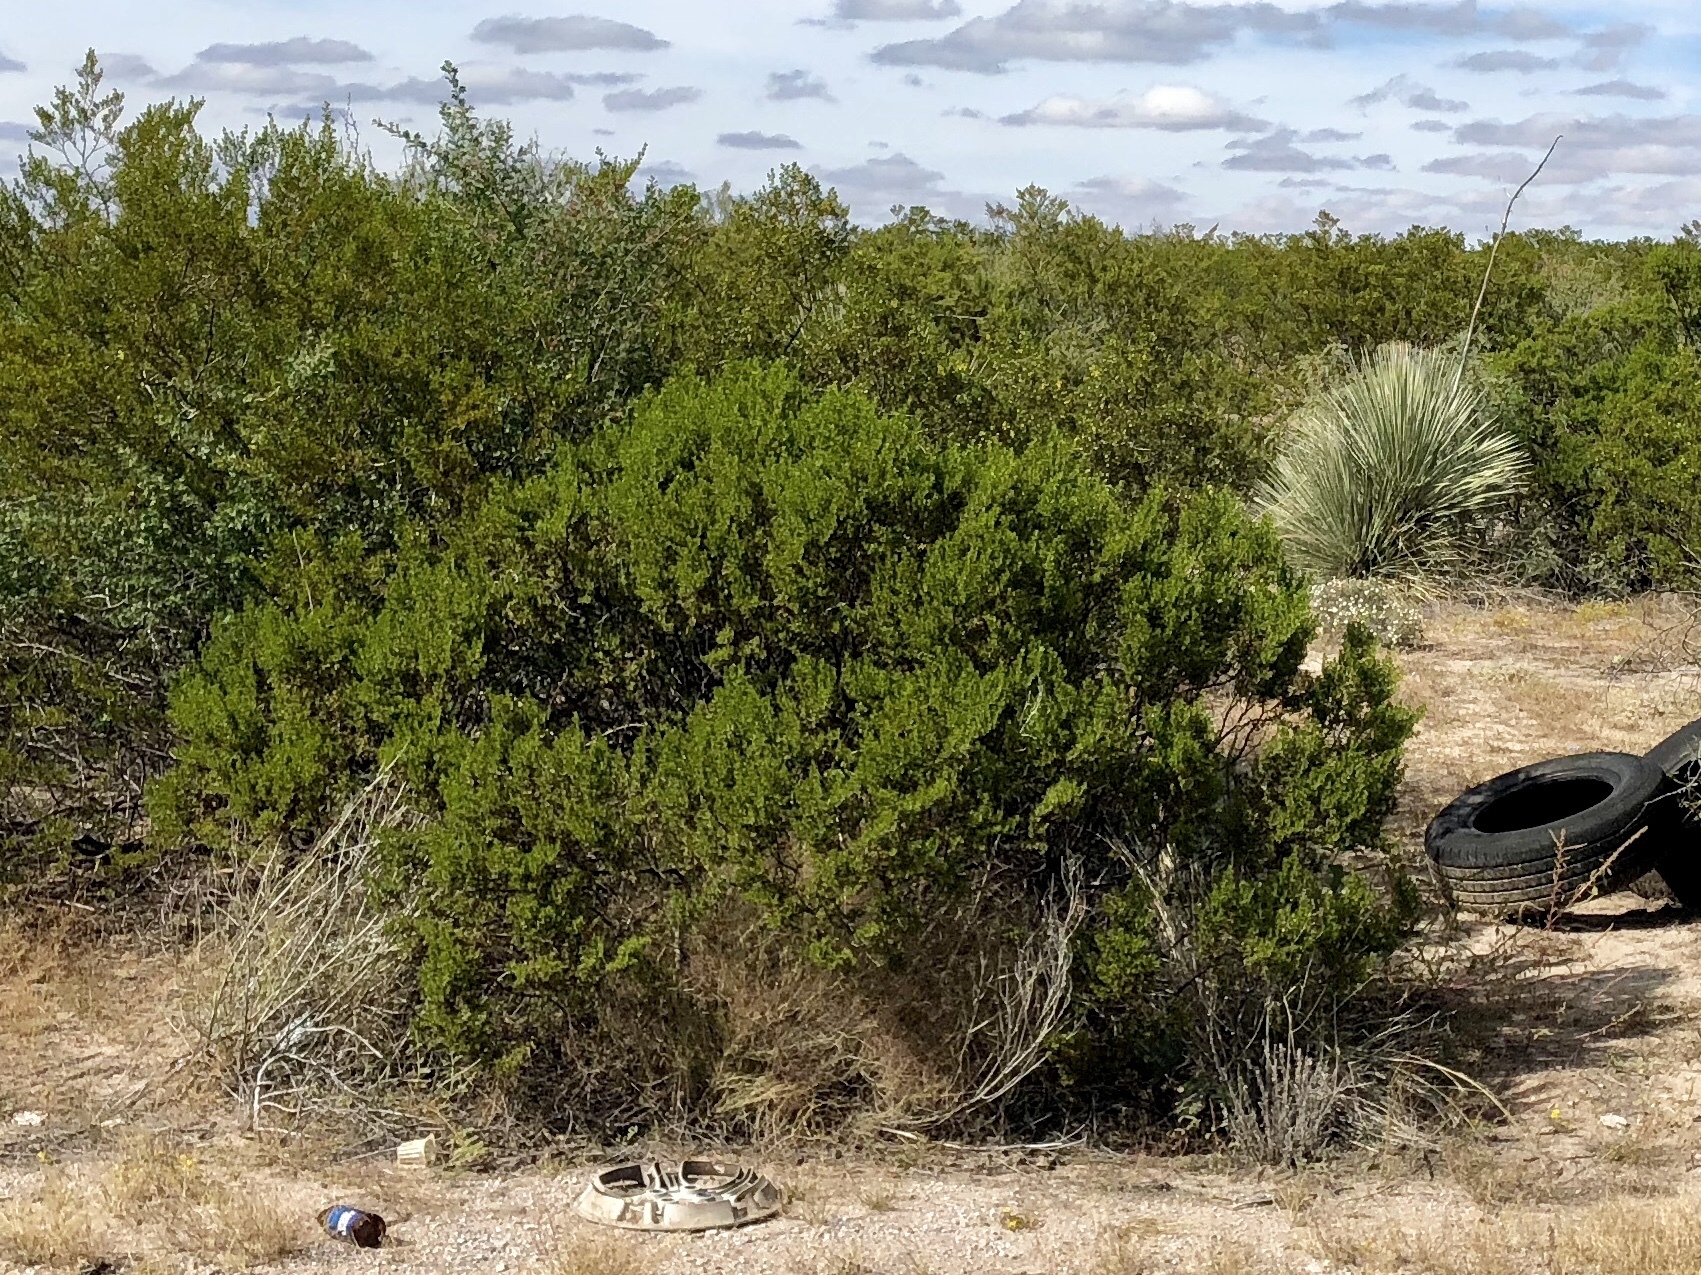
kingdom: Plantae
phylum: Tracheophyta
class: Magnoliopsida
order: Zygophyllales
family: Zygophyllaceae
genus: Larrea
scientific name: Larrea tridentata
